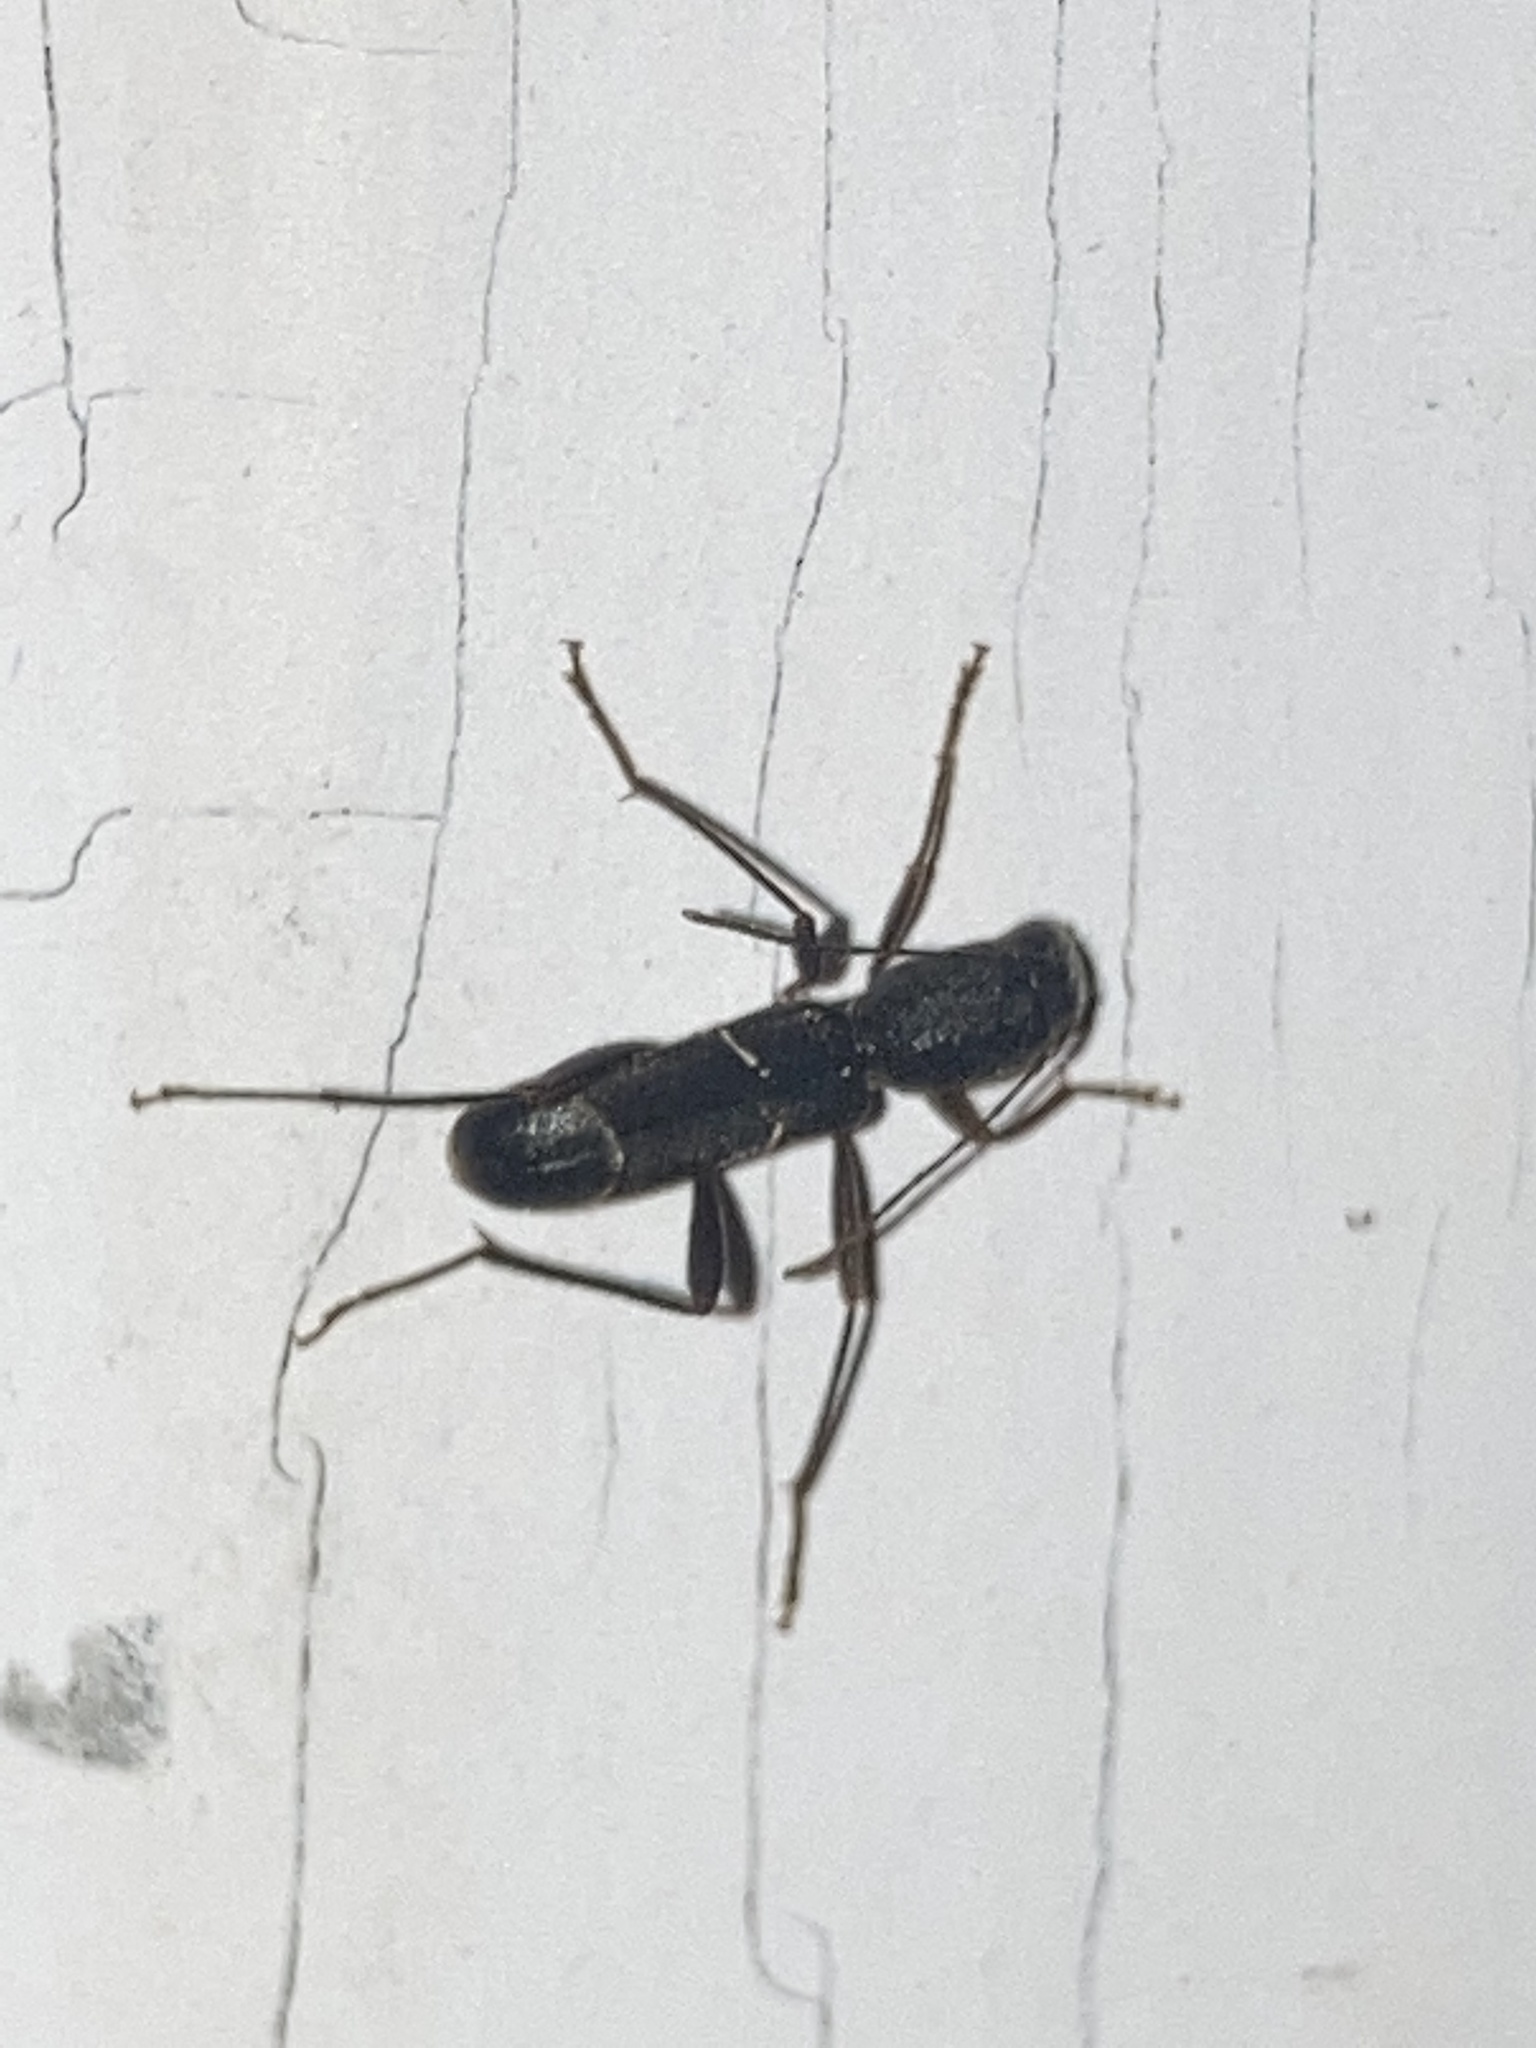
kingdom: Animalia
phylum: Arthropoda
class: Insecta
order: Coleoptera
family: Cerambycidae
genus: Neoclytus
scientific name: Neoclytus jouteli
